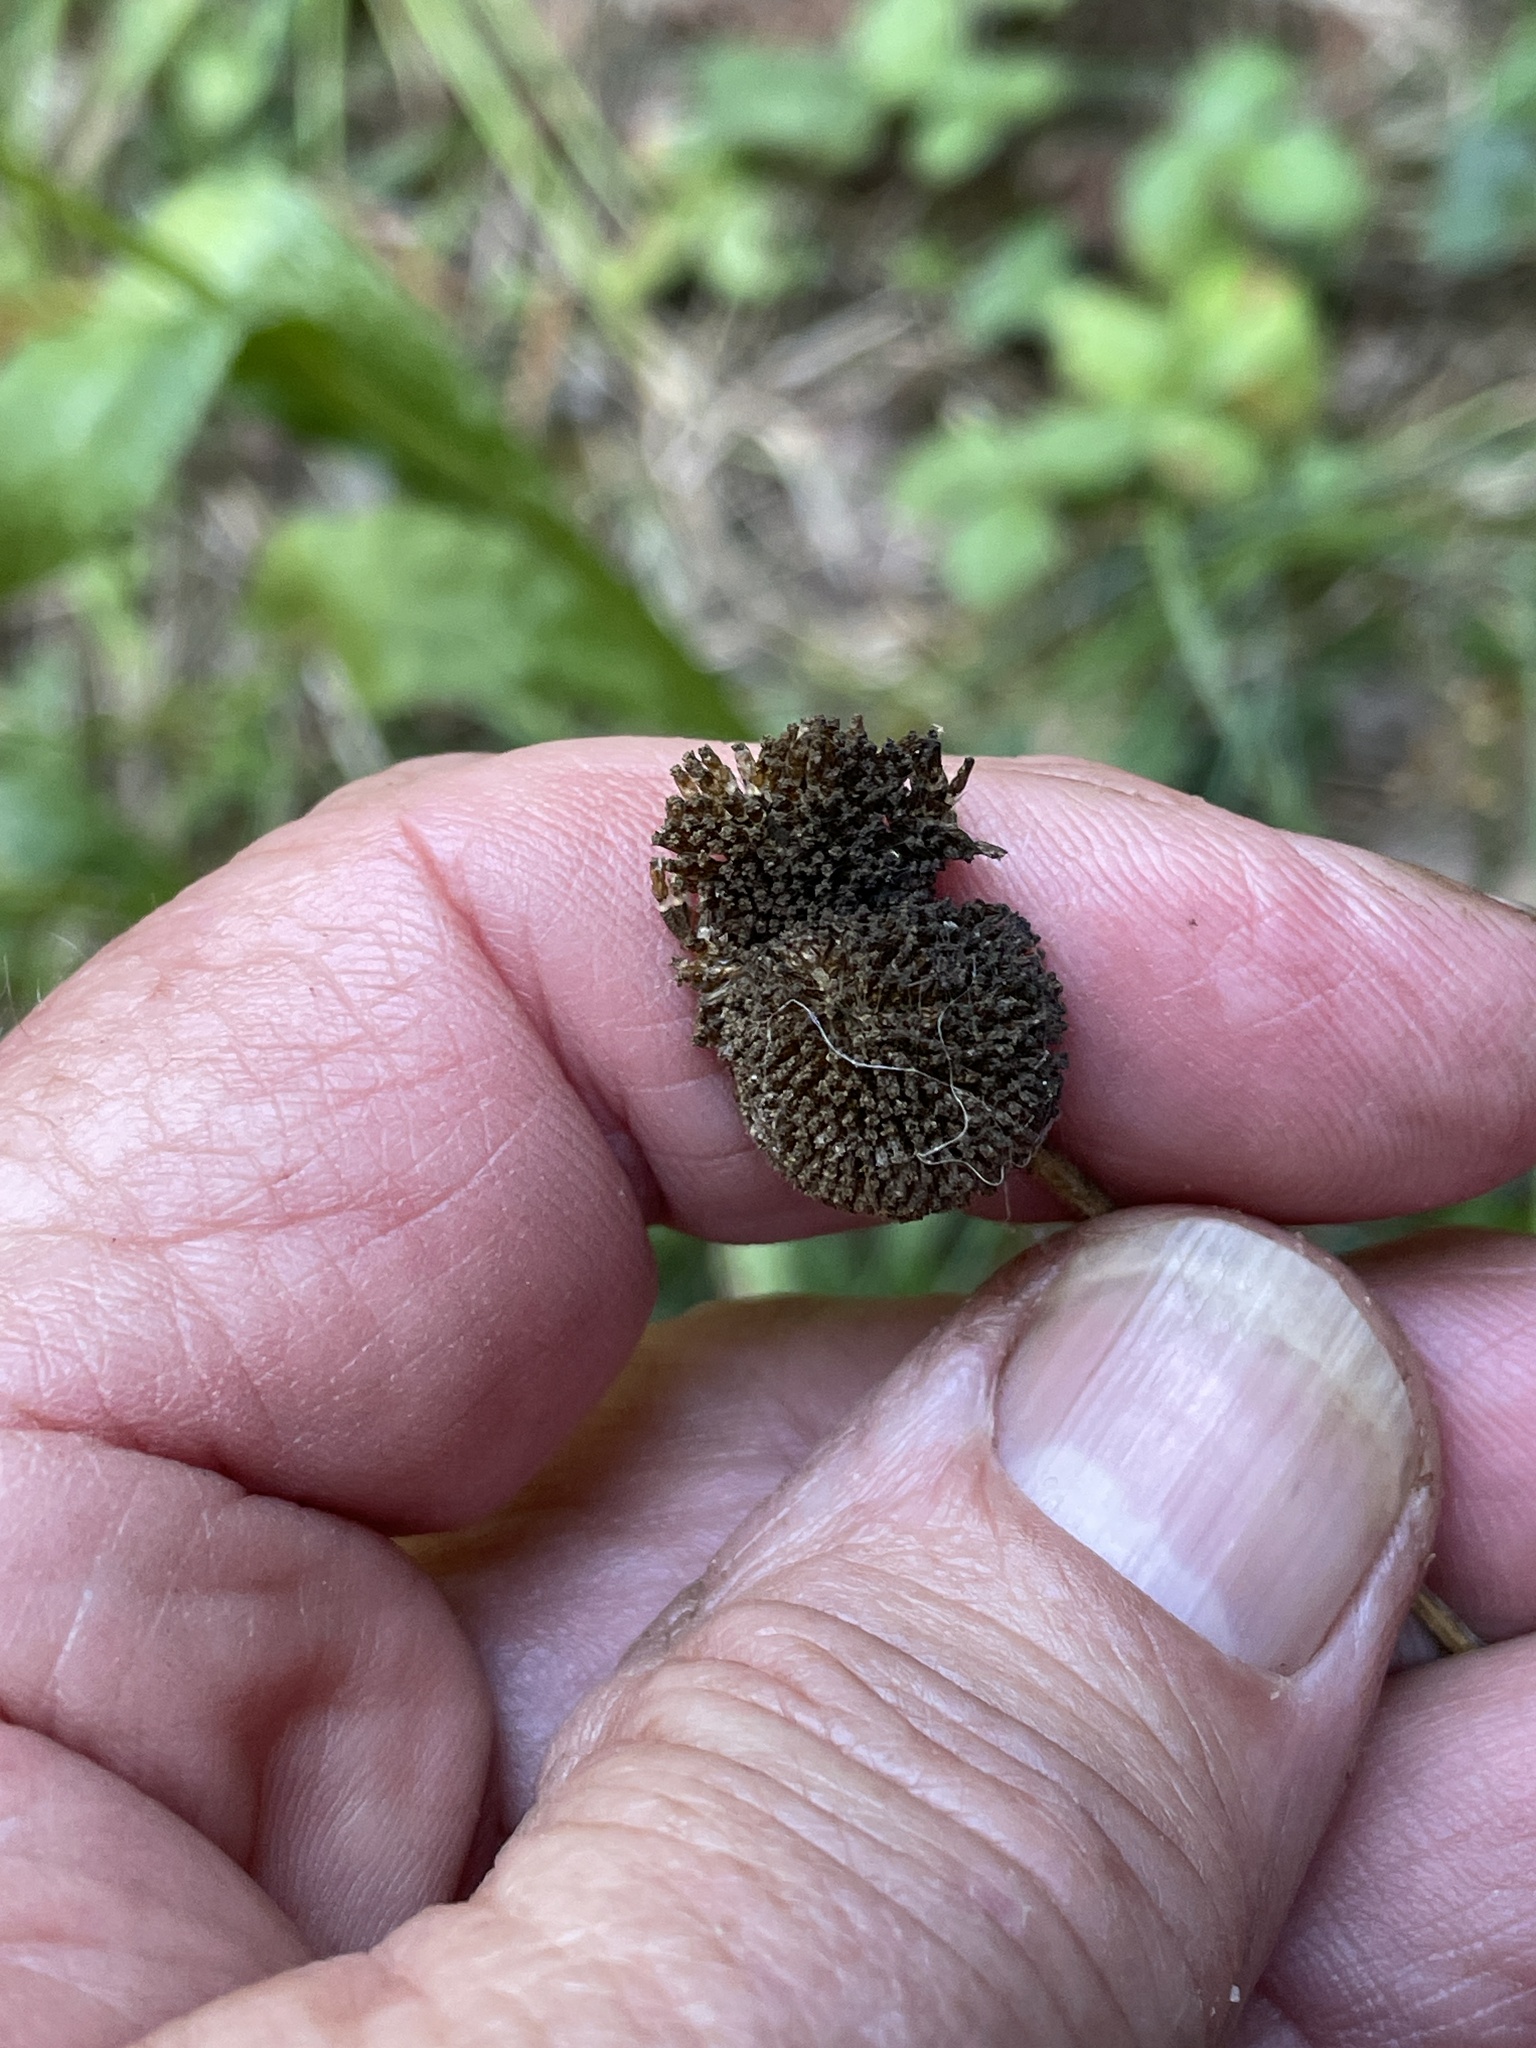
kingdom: Plantae
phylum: Tracheophyta
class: Magnoliopsida
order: Asterales
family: Asteraceae
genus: Helenium
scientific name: Helenium puberulum
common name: Sneezewort
